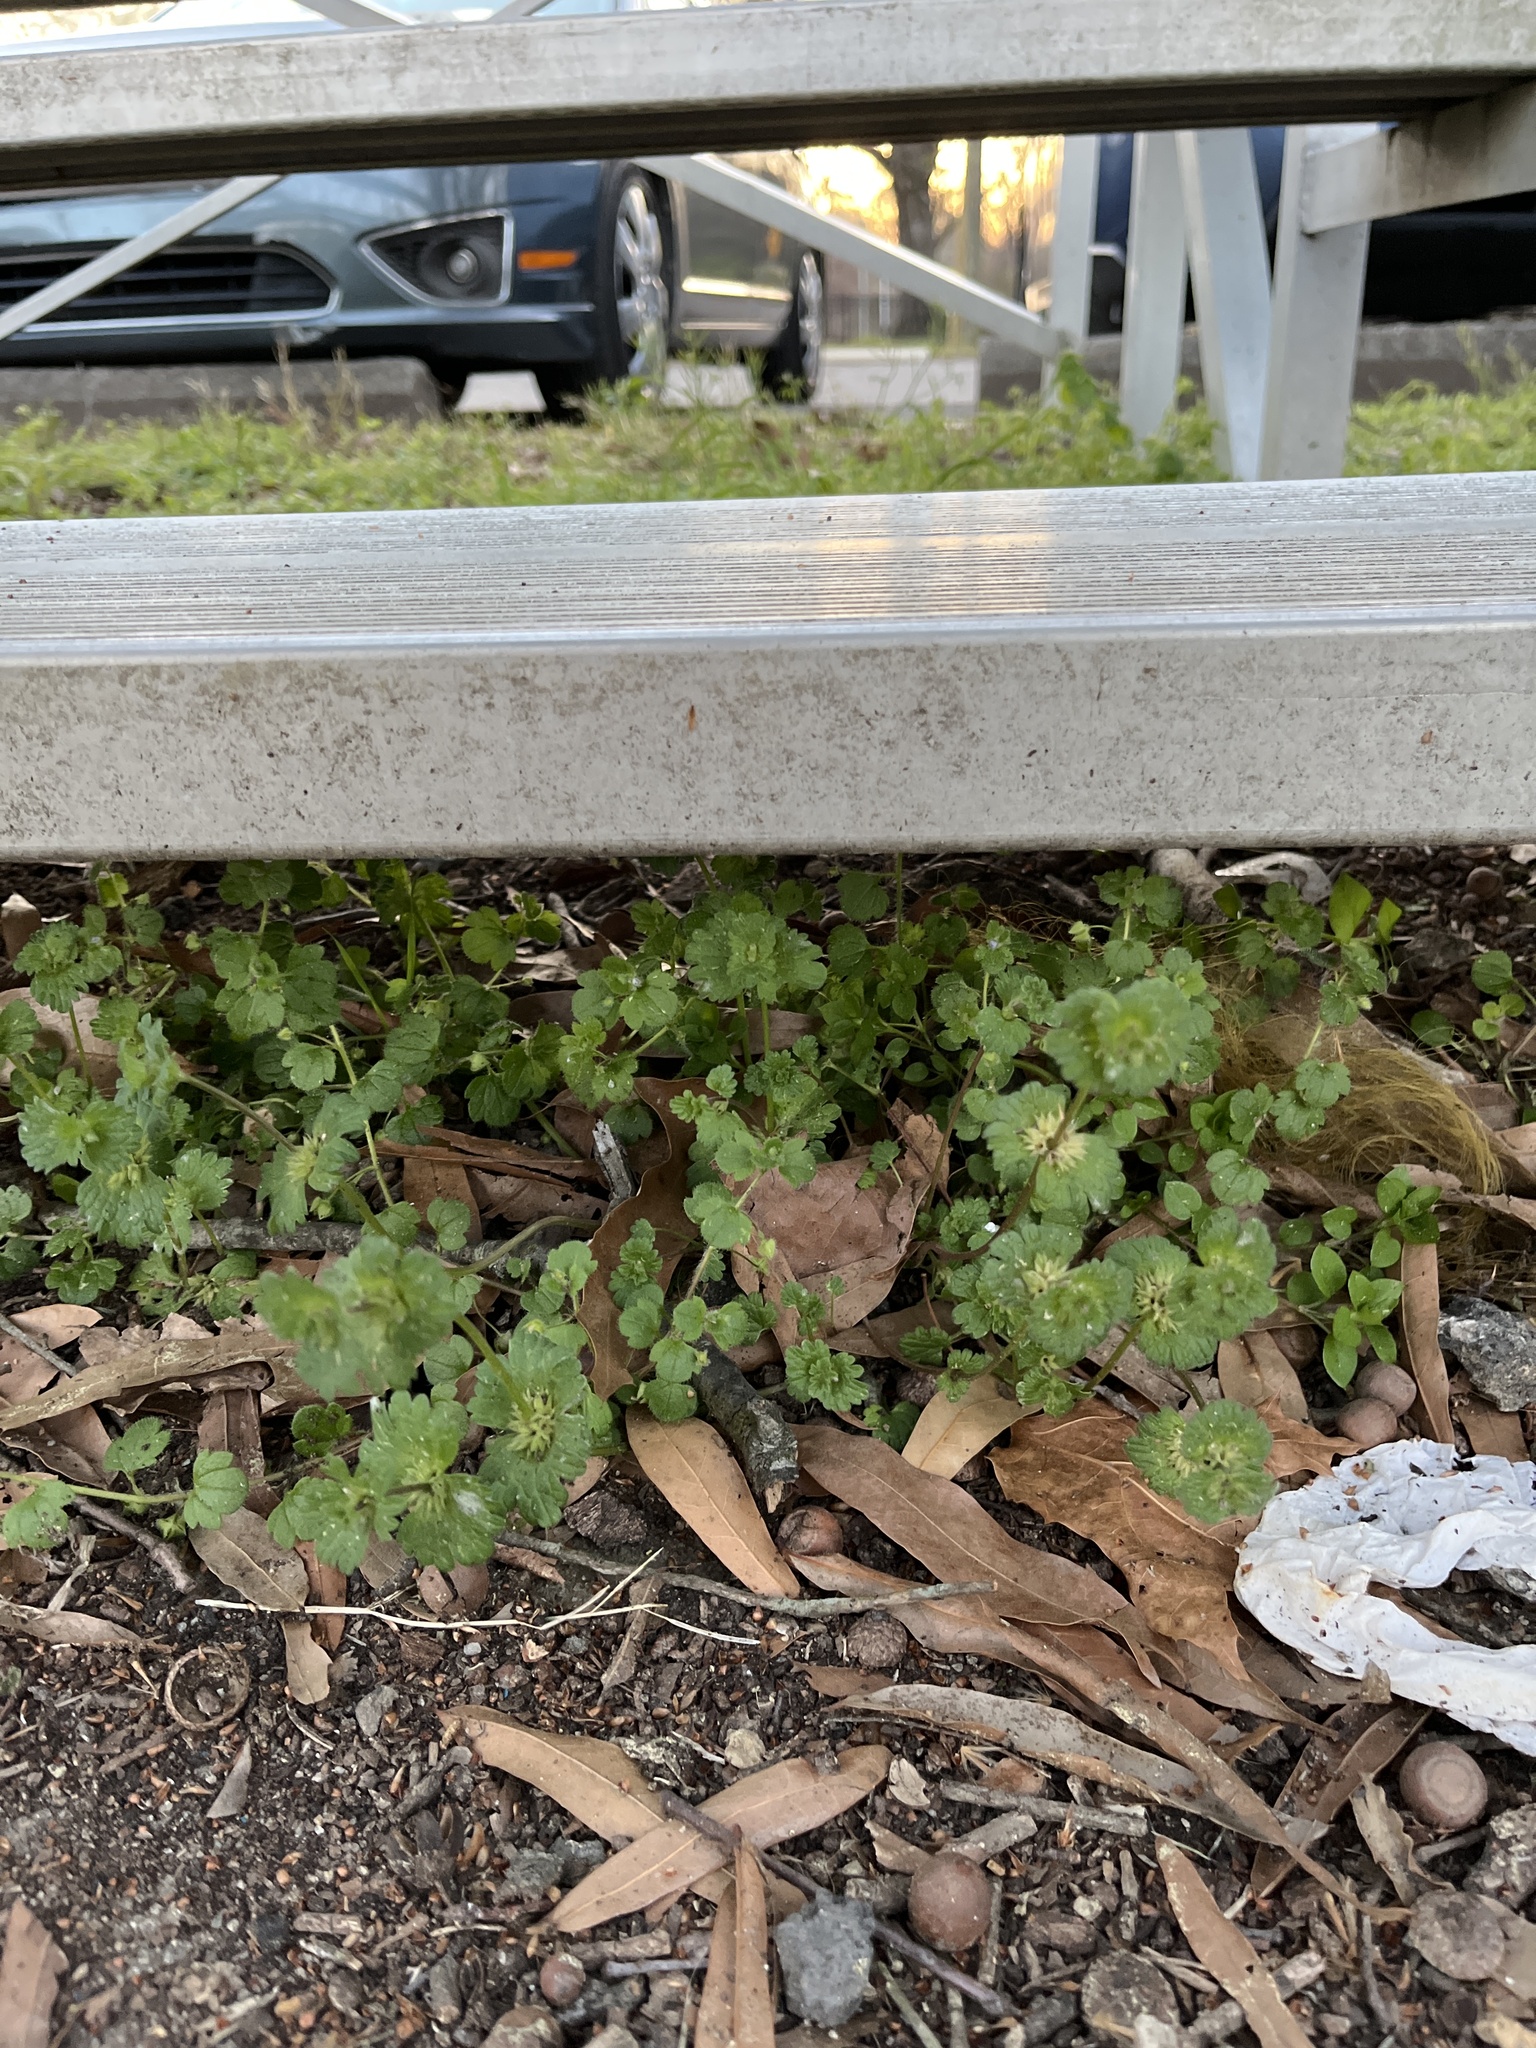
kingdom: Plantae
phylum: Tracheophyta
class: Magnoliopsida
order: Lamiales
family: Lamiaceae
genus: Lamium
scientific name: Lamium amplexicaule
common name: Henbit dead-nettle
